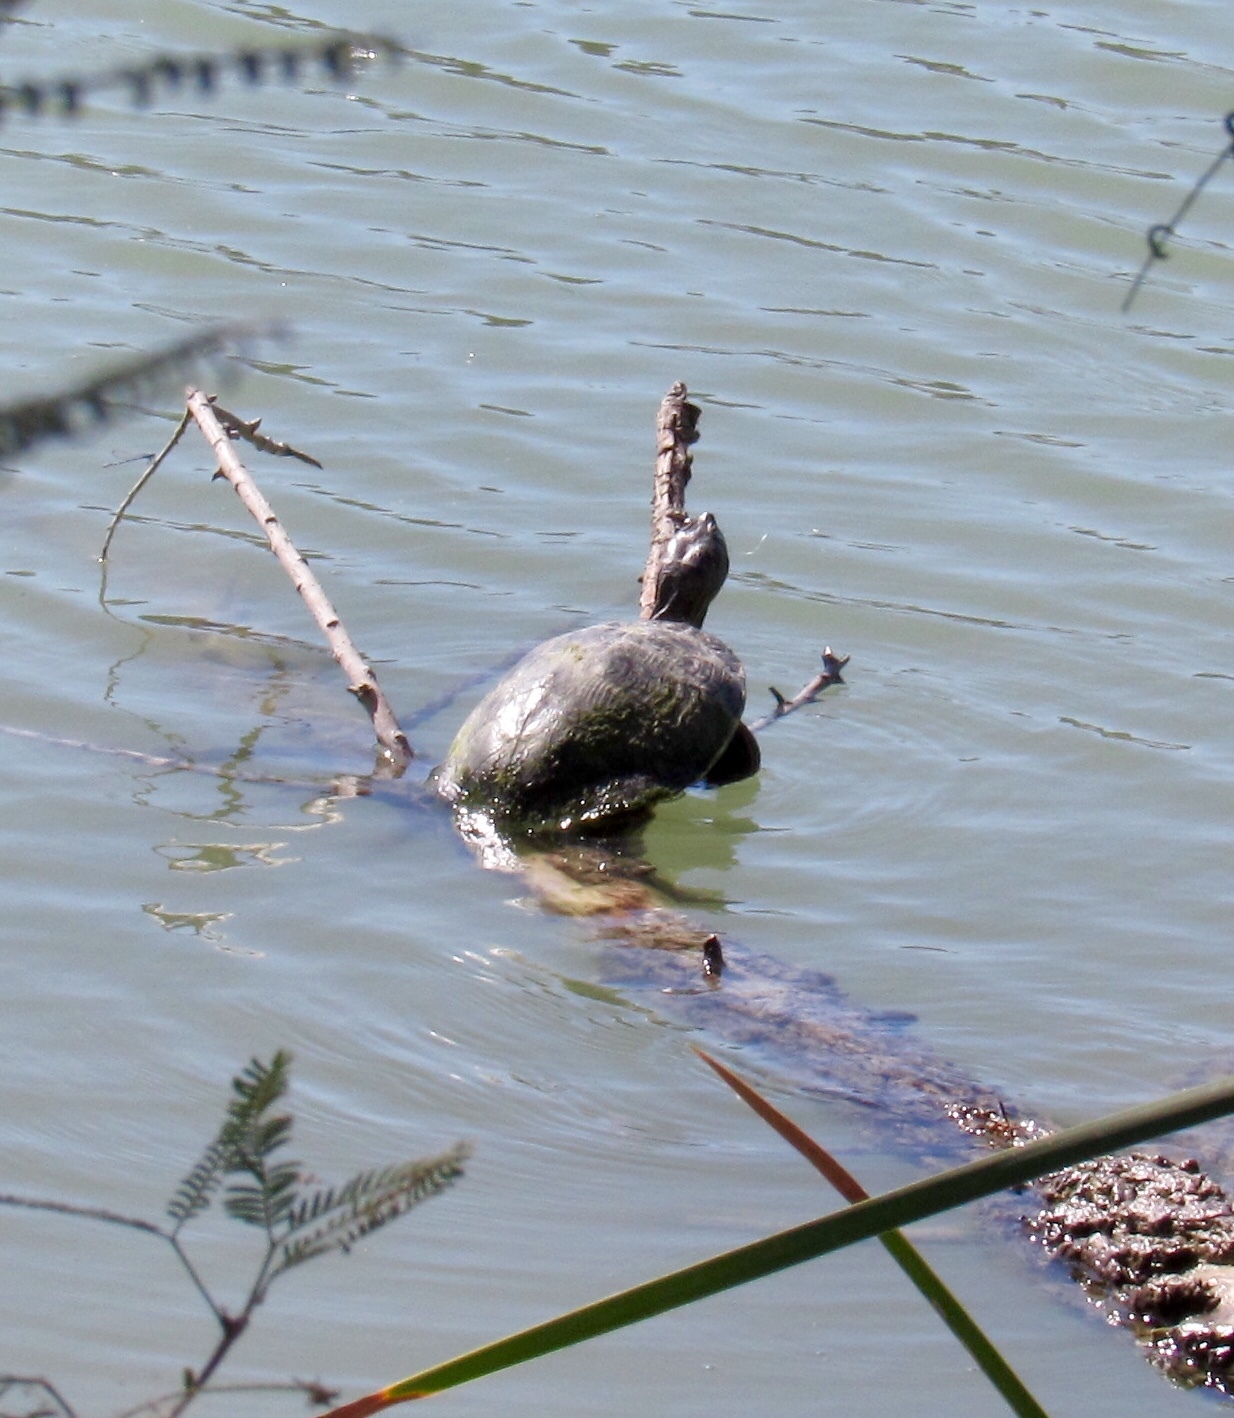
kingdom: Animalia
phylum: Chordata
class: Testudines
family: Emydidae
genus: Trachemys
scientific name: Trachemys scripta
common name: Slider
